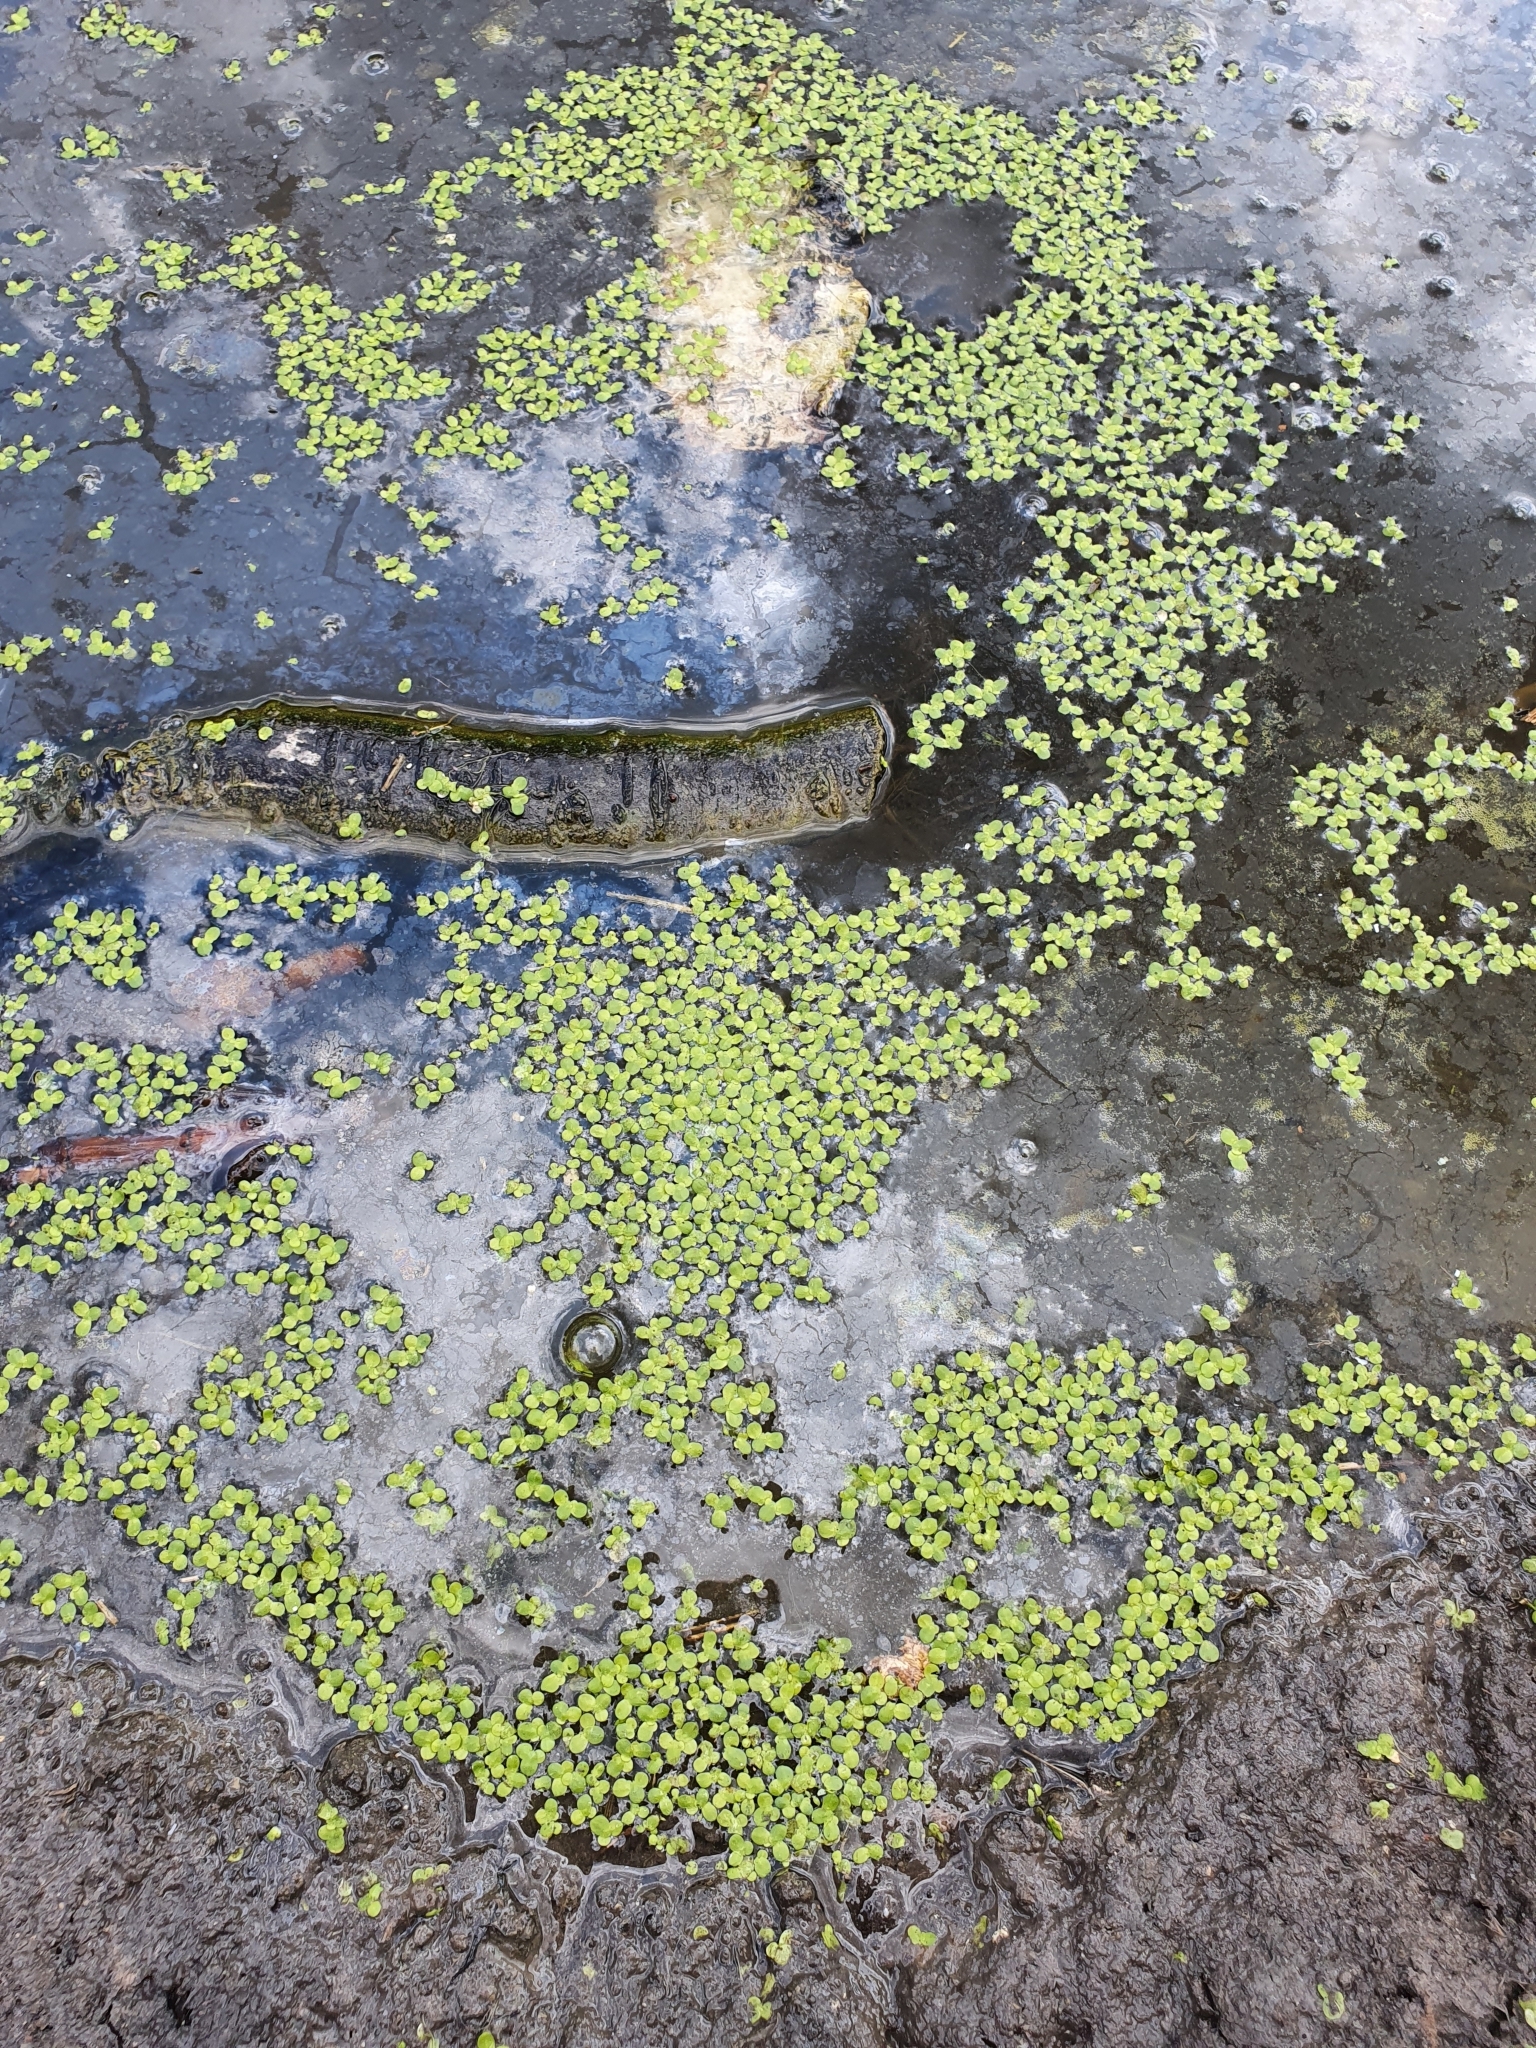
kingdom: Plantae
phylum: Tracheophyta
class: Liliopsida
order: Alismatales
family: Araceae
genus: Lemna
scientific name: Lemna minor
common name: Common duckweed
